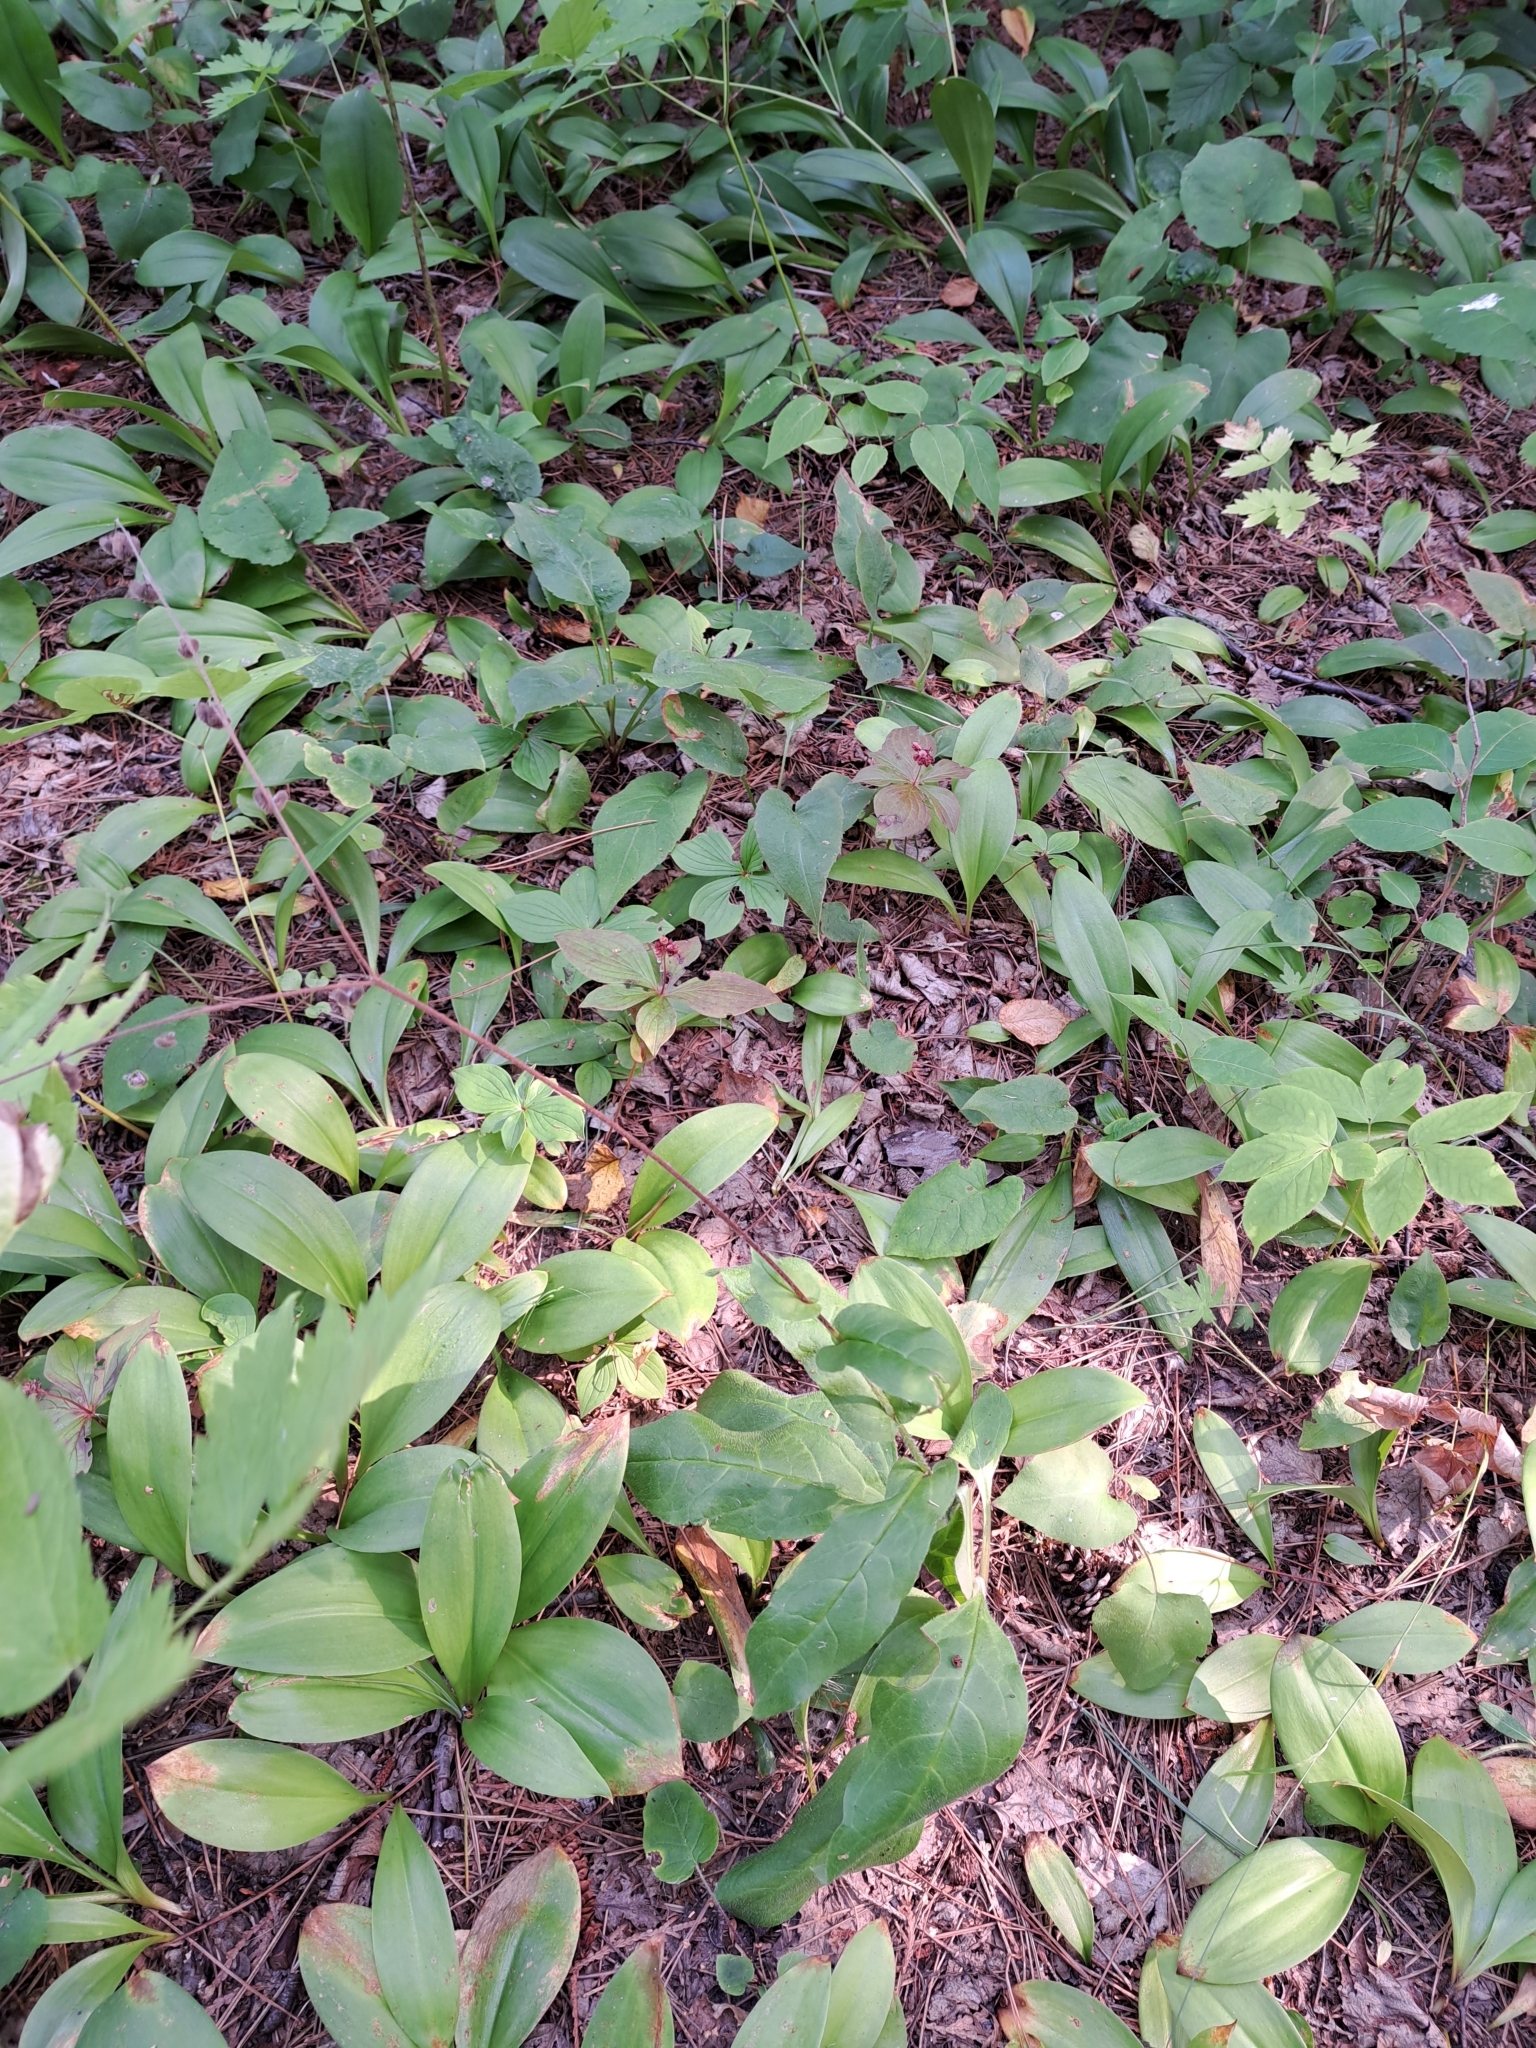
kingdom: Plantae
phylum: Tracheophyta
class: Magnoliopsida
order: Boraginales
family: Boraginaceae
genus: Andersonglossum
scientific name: Andersonglossum boreale
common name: Northern hound's-tongue
